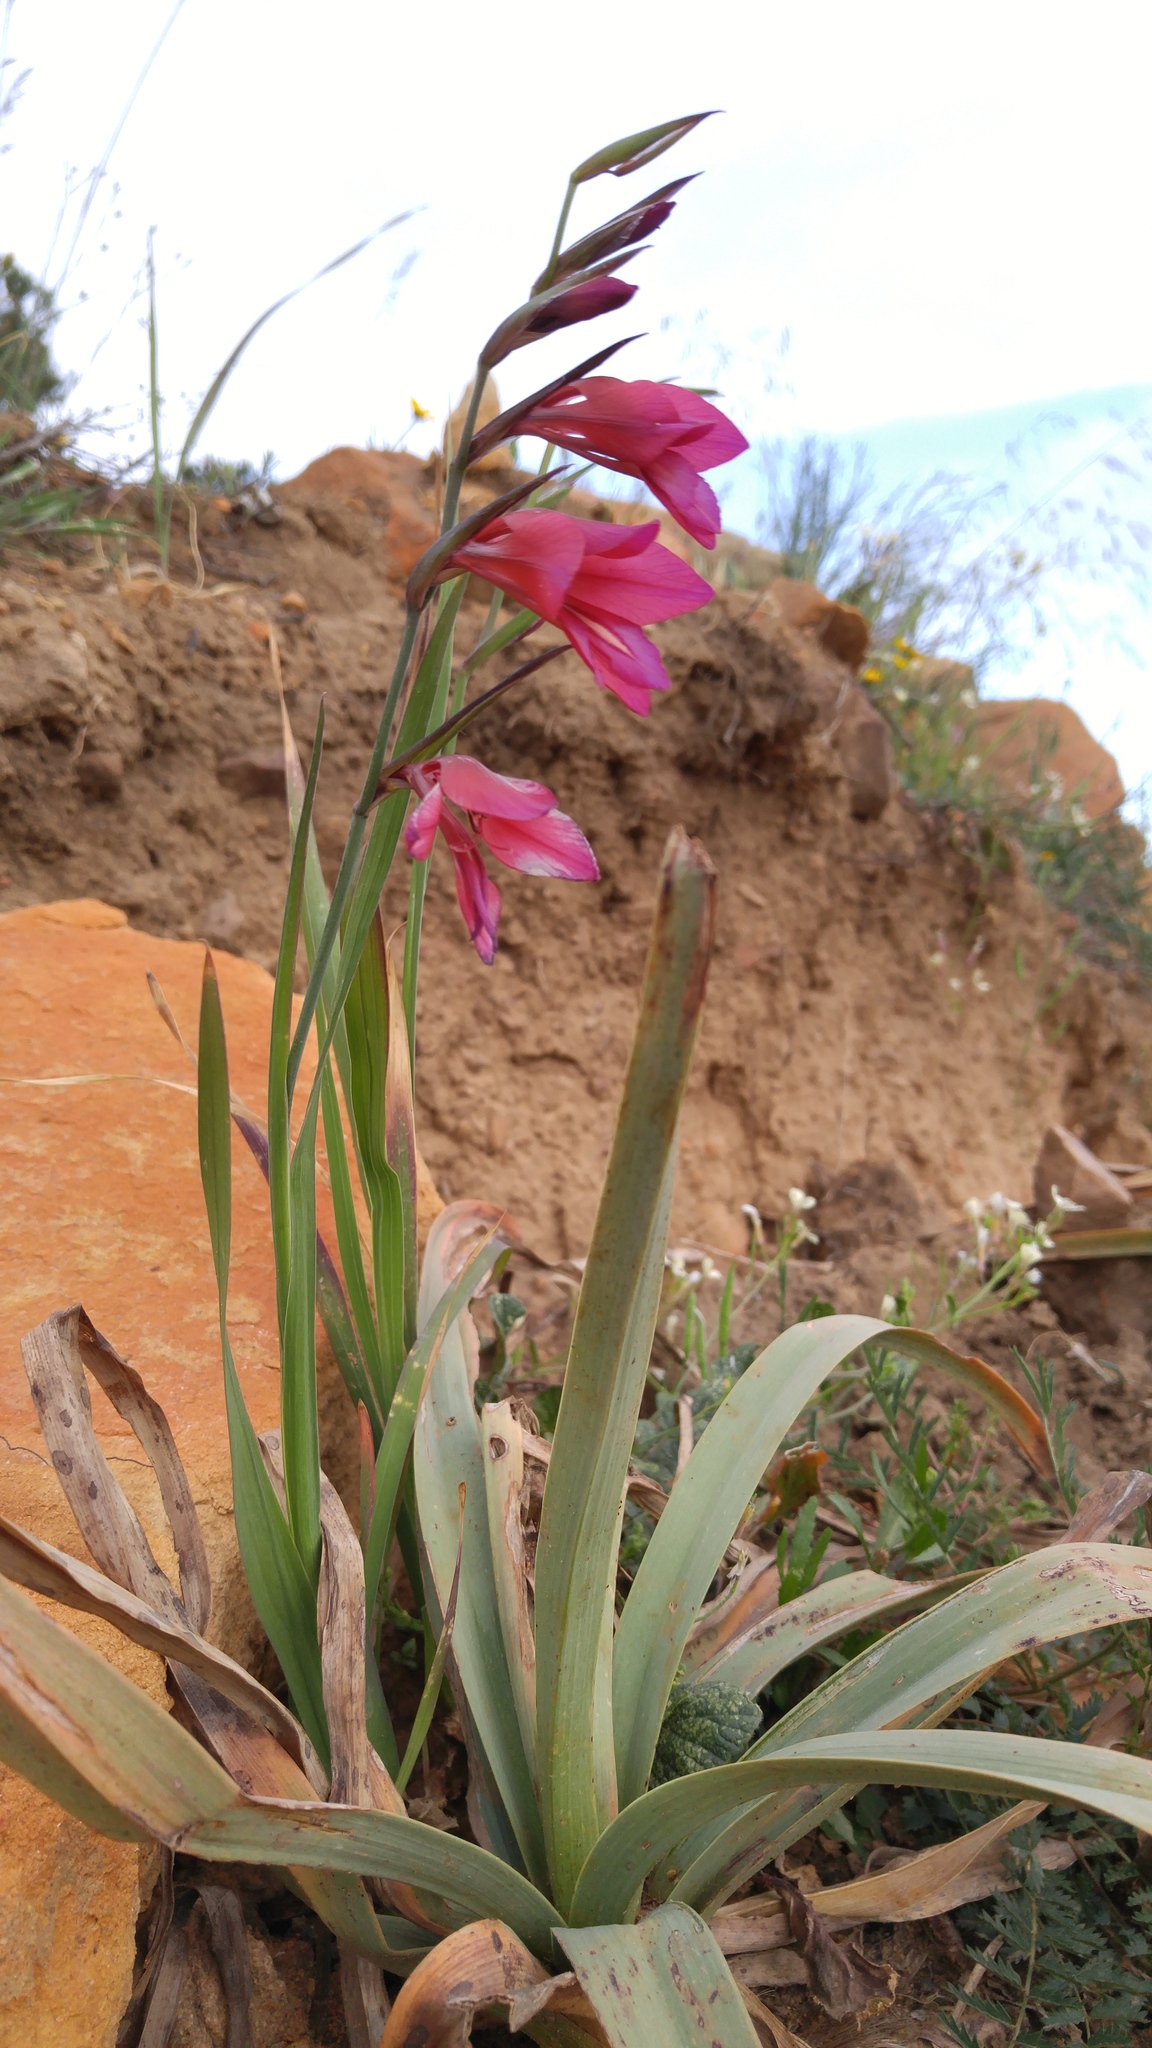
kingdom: Plantae
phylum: Tracheophyta
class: Liliopsida
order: Asparagales
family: Iridaceae
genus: Gladiolus
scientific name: Gladiolus dubius
